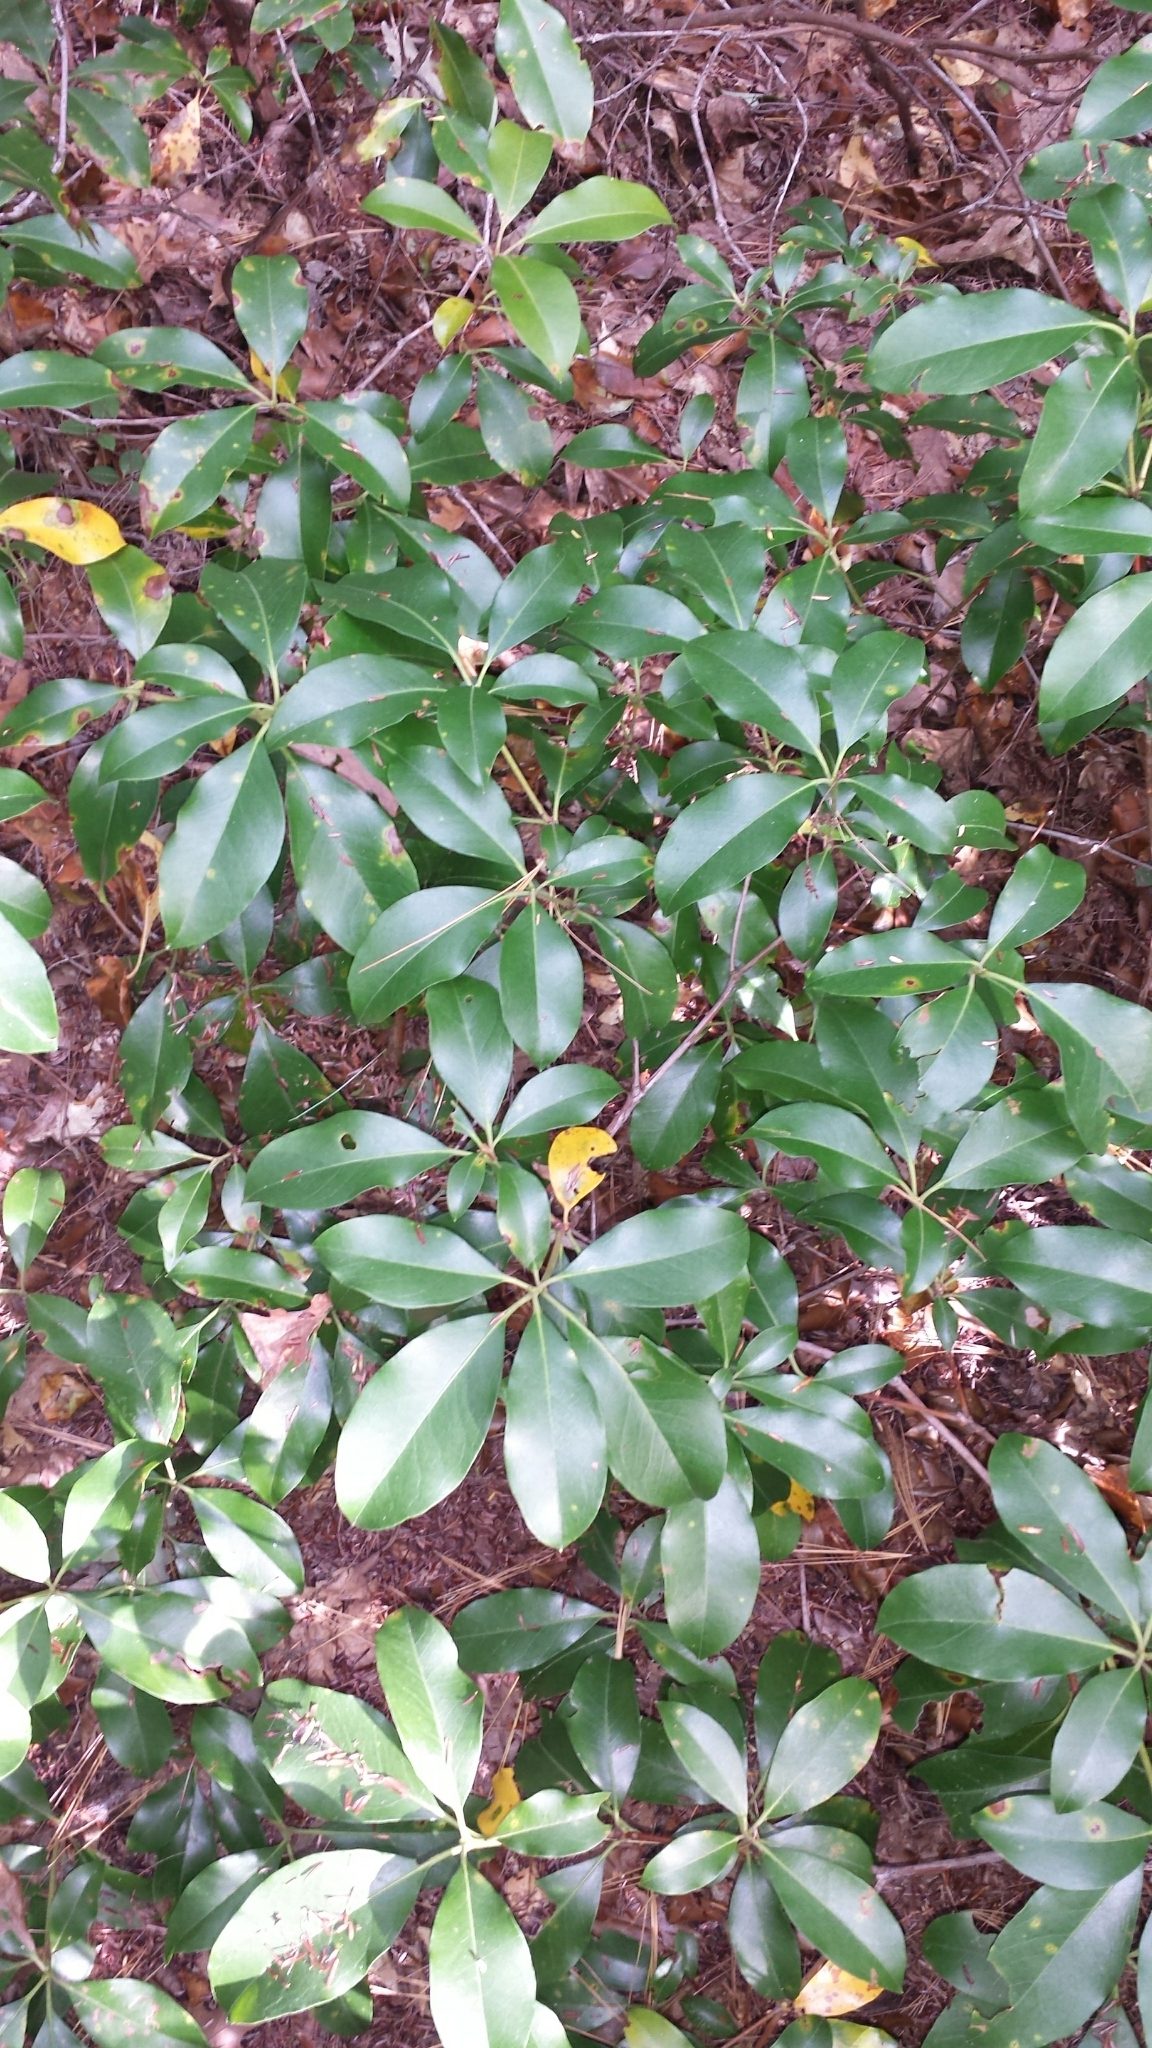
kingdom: Plantae
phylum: Tracheophyta
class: Magnoliopsida
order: Ericales
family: Ericaceae
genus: Kalmia
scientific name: Kalmia latifolia
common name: Mountain-laurel
